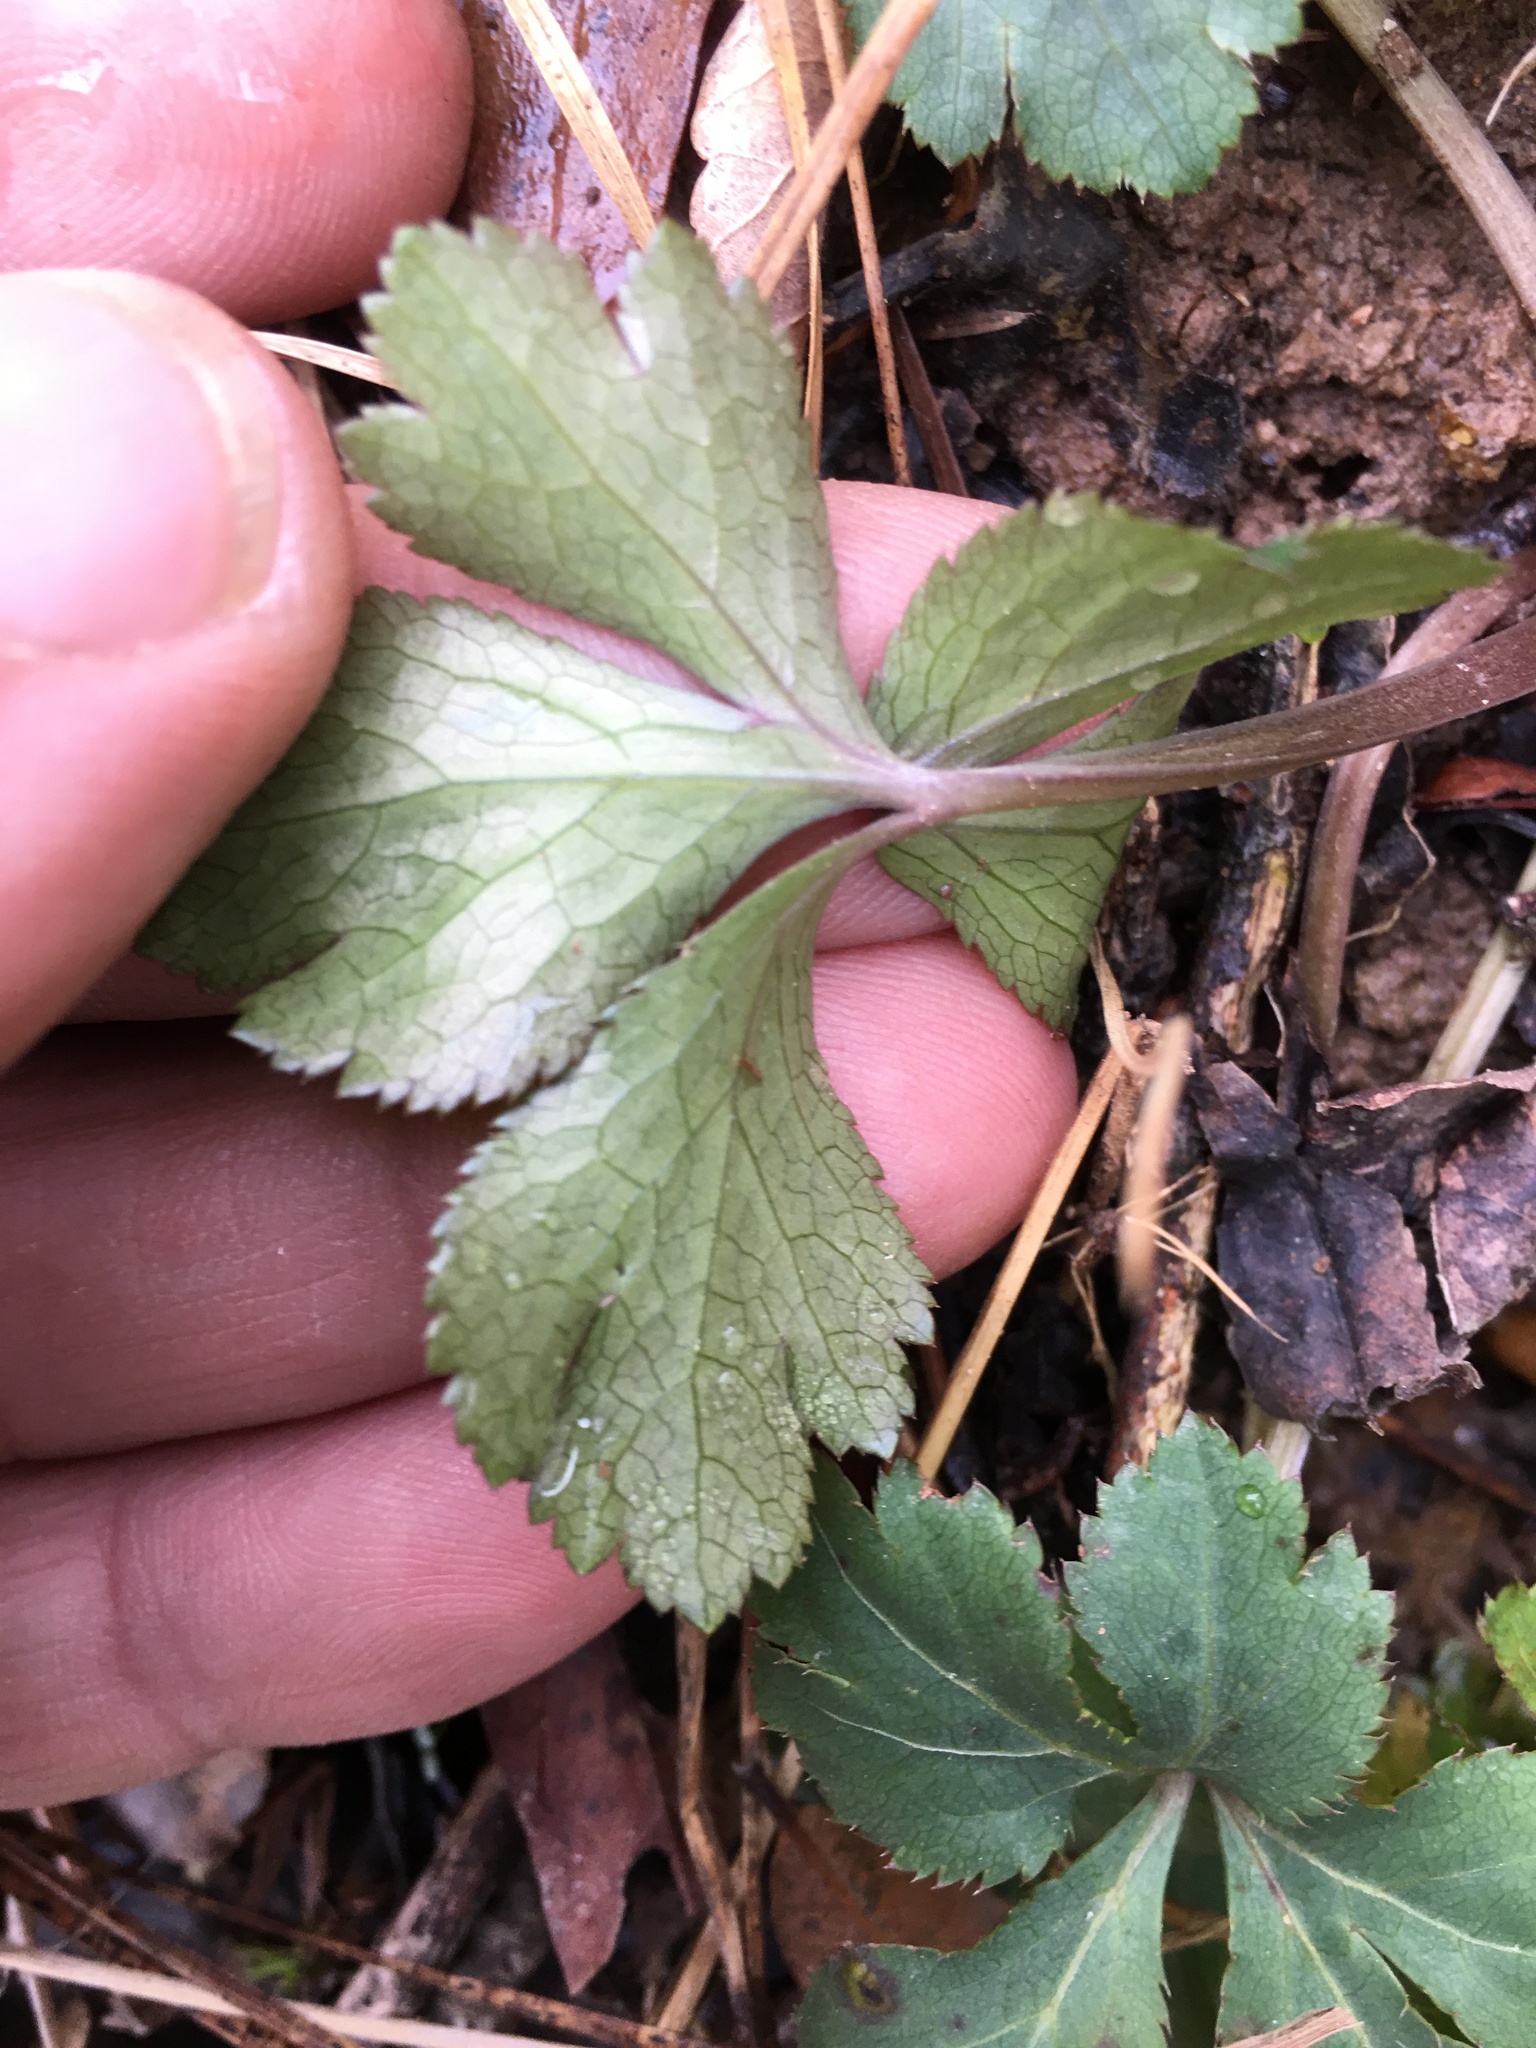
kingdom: Plantae
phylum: Tracheophyta
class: Magnoliopsida
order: Apiales
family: Apiaceae
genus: Sanicula
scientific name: Sanicula canadensis
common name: Canada sanicle
